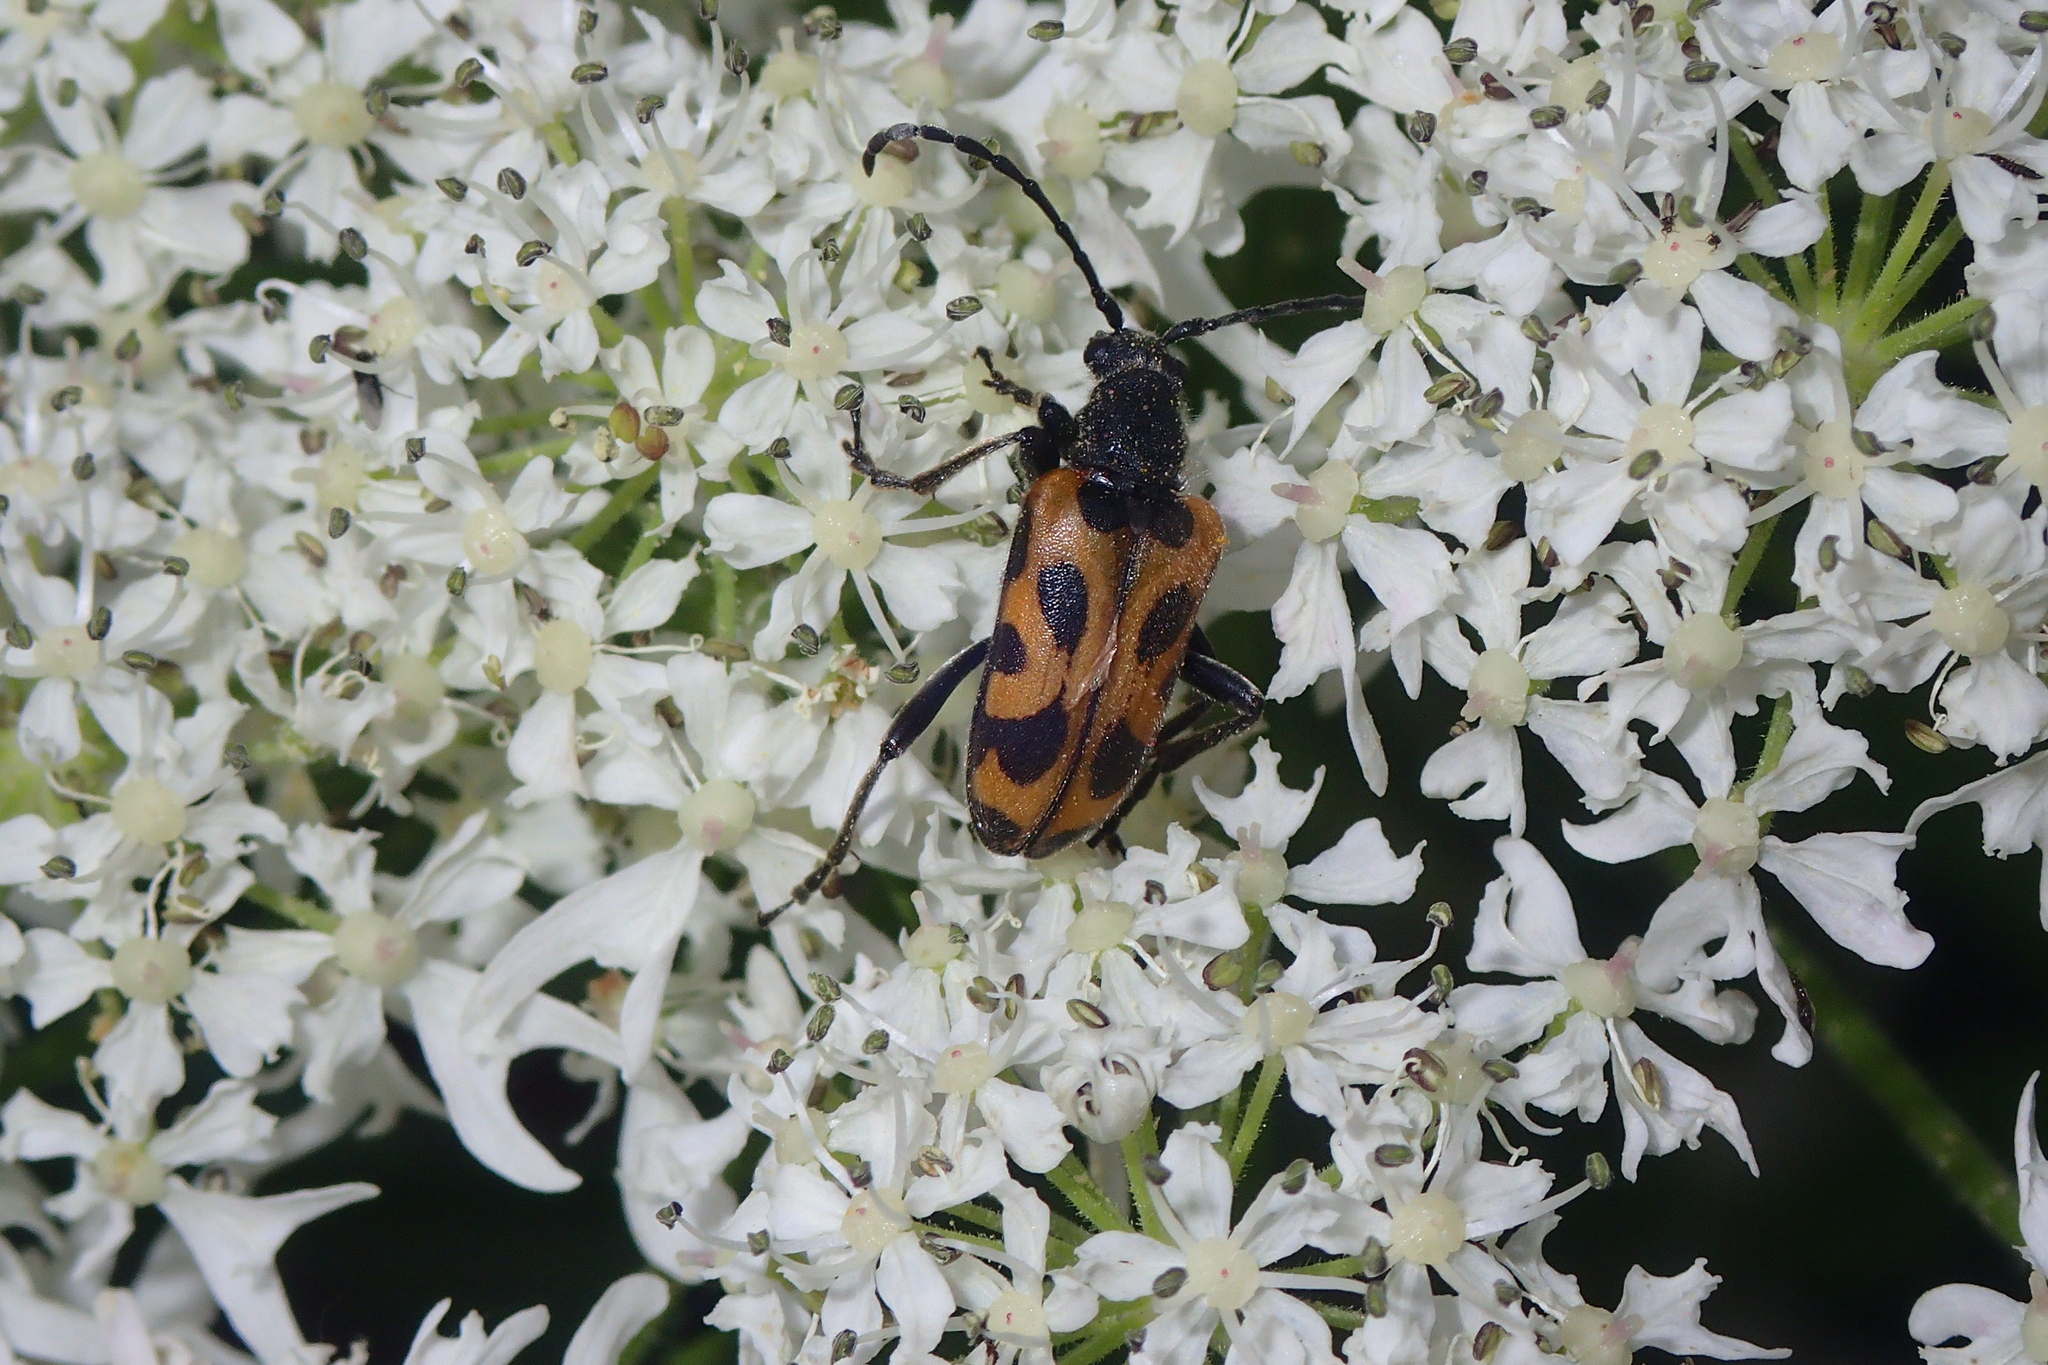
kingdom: Animalia
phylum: Arthropoda
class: Insecta
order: Coleoptera
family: Cerambycidae
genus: Brachyta
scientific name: Brachyta interrogationis
